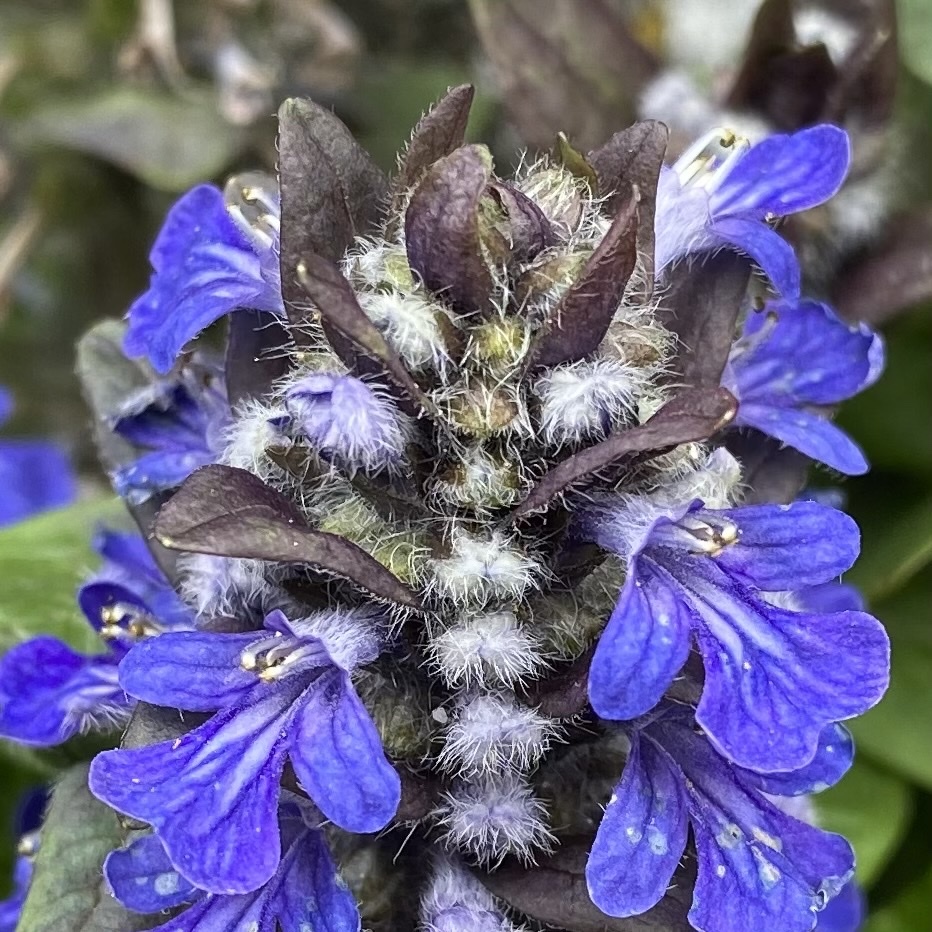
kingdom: Plantae
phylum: Tracheophyta
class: Magnoliopsida
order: Lamiales
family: Lamiaceae
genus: Ajuga
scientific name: Ajuga reptans
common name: Bugle
